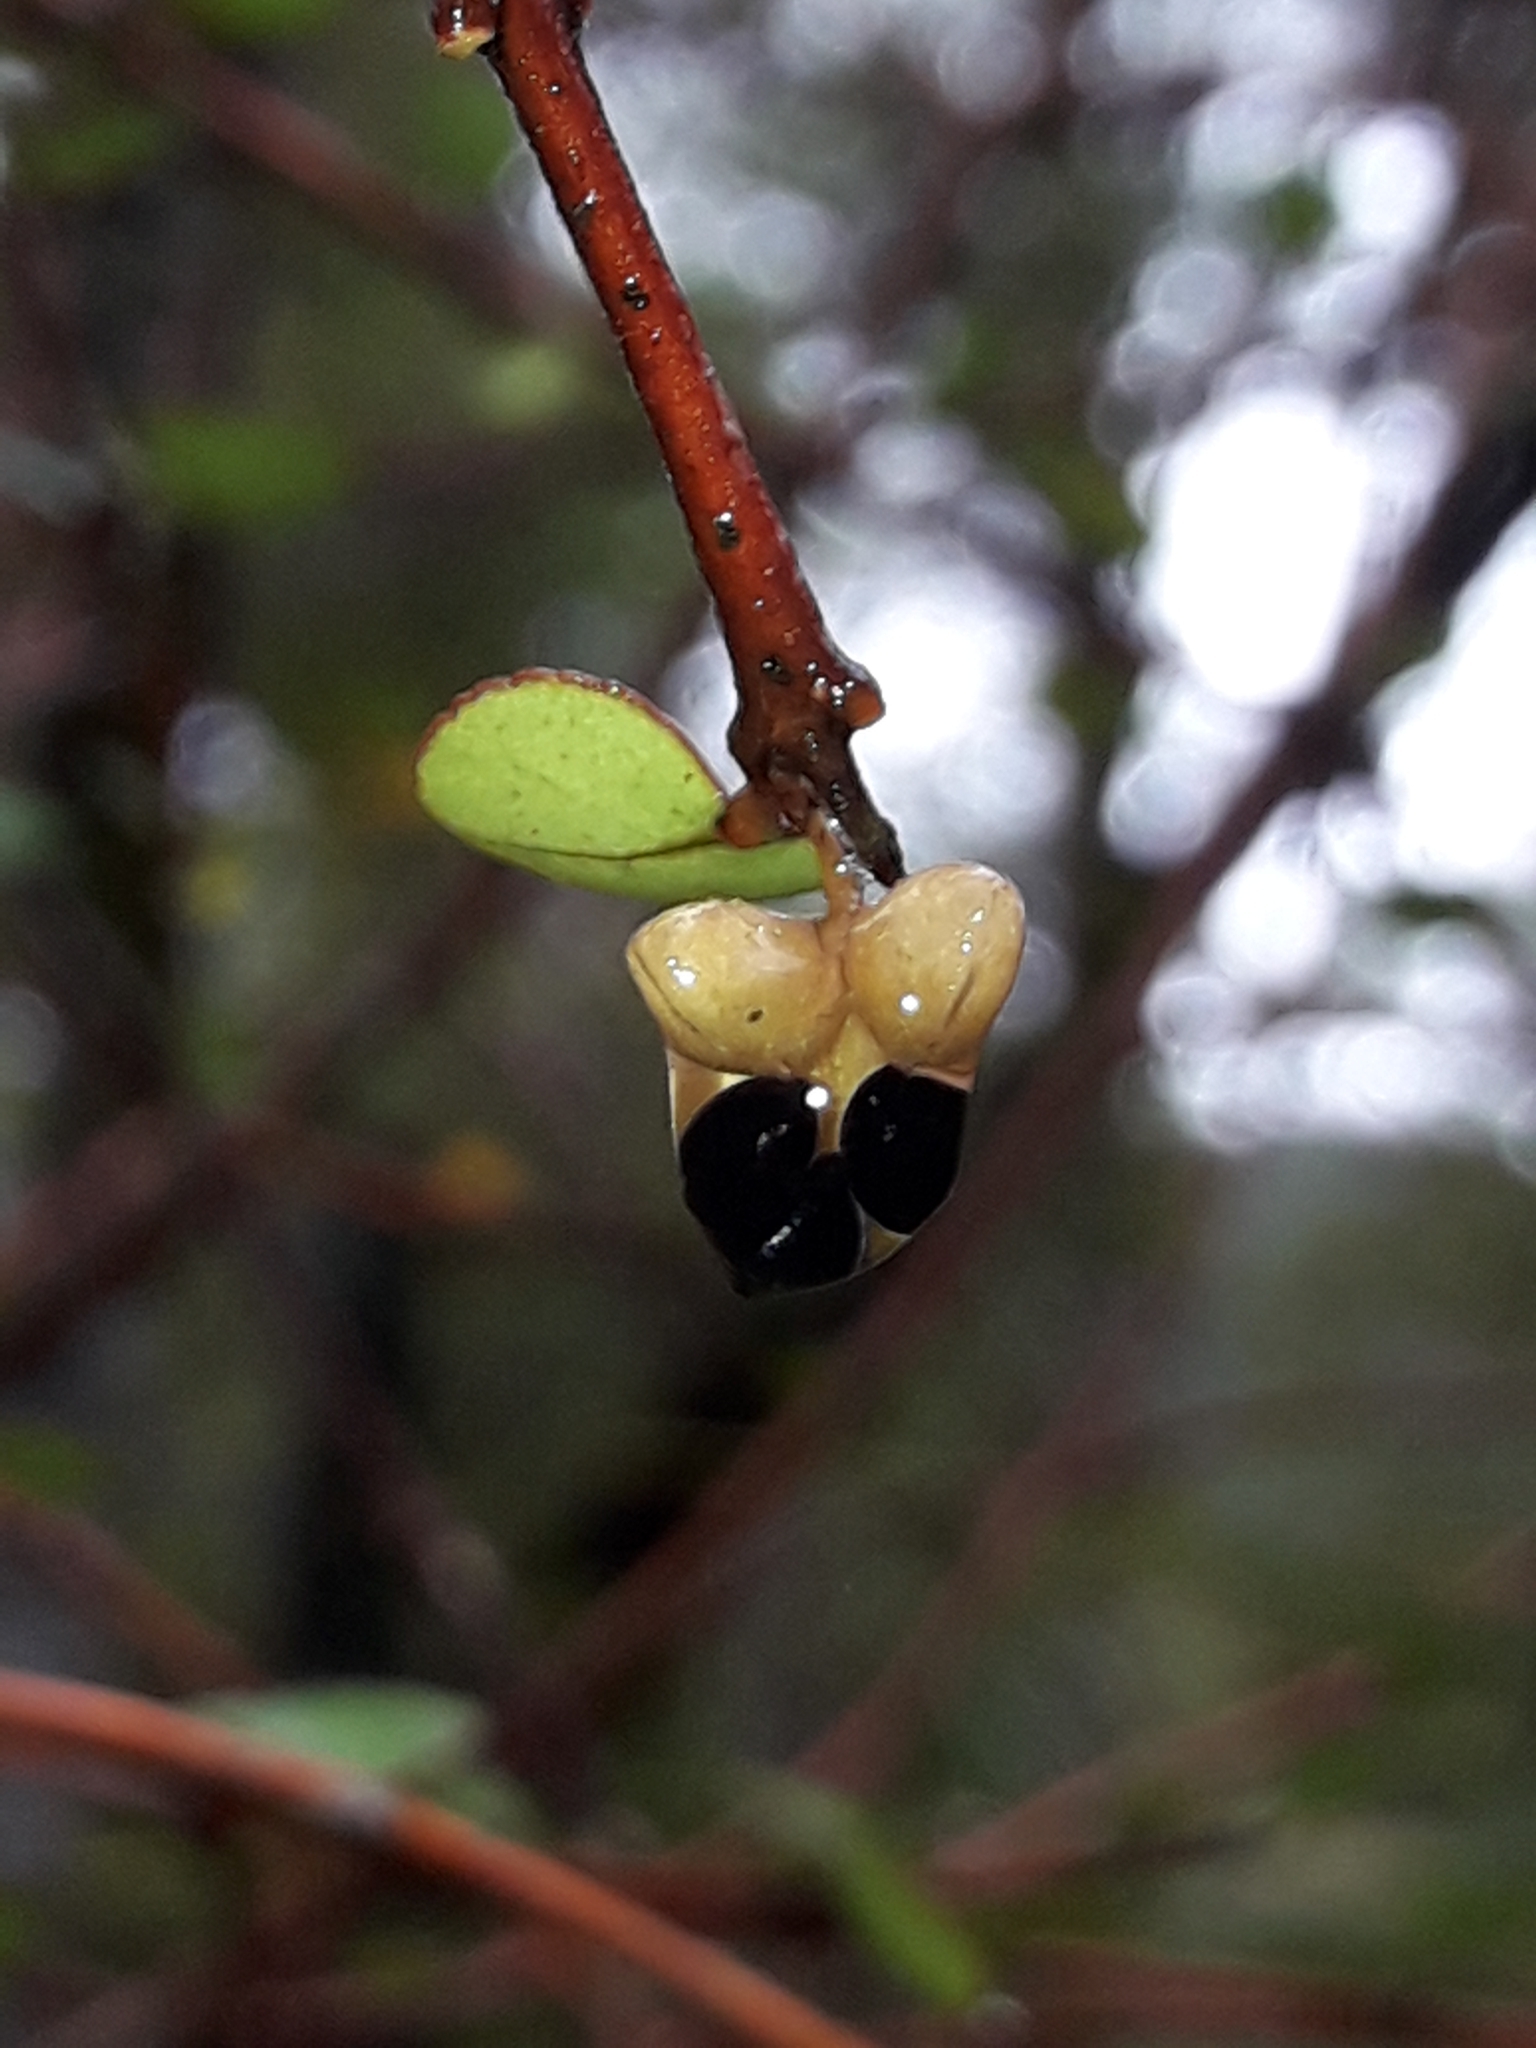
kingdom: Plantae
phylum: Tracheophyta
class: Magnoliopsida
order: Sapindales
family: Rutaceae
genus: Melicope
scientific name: Melicope simplex
